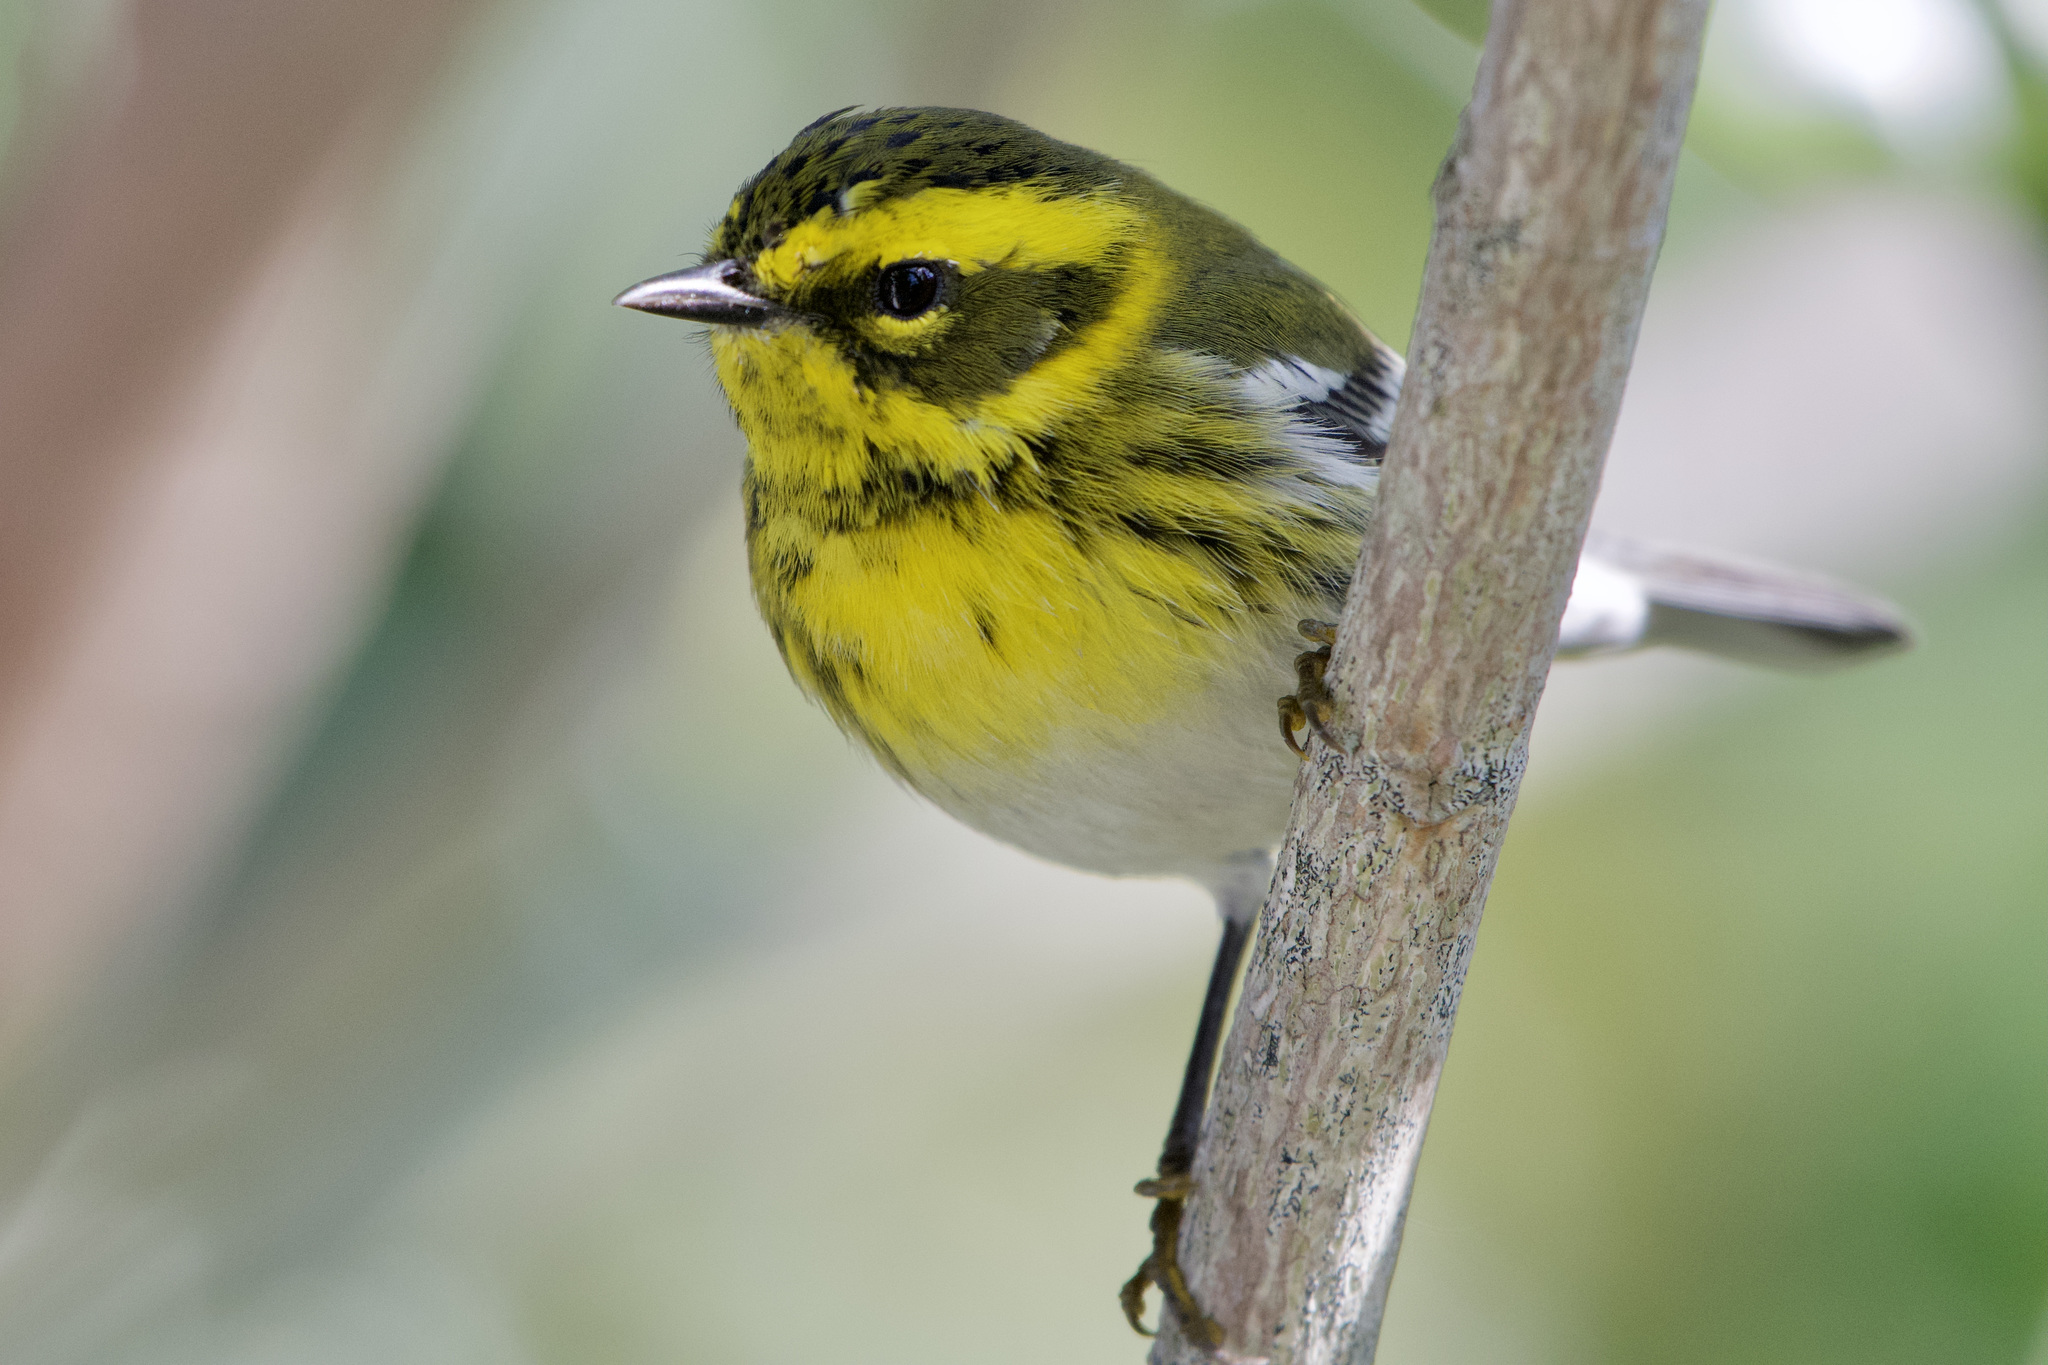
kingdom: Animalia
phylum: Chordata
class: Aves
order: Passeriformes
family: Parulidae
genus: Setophaga
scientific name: Setophaga townsendi
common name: Townsend's warbler
